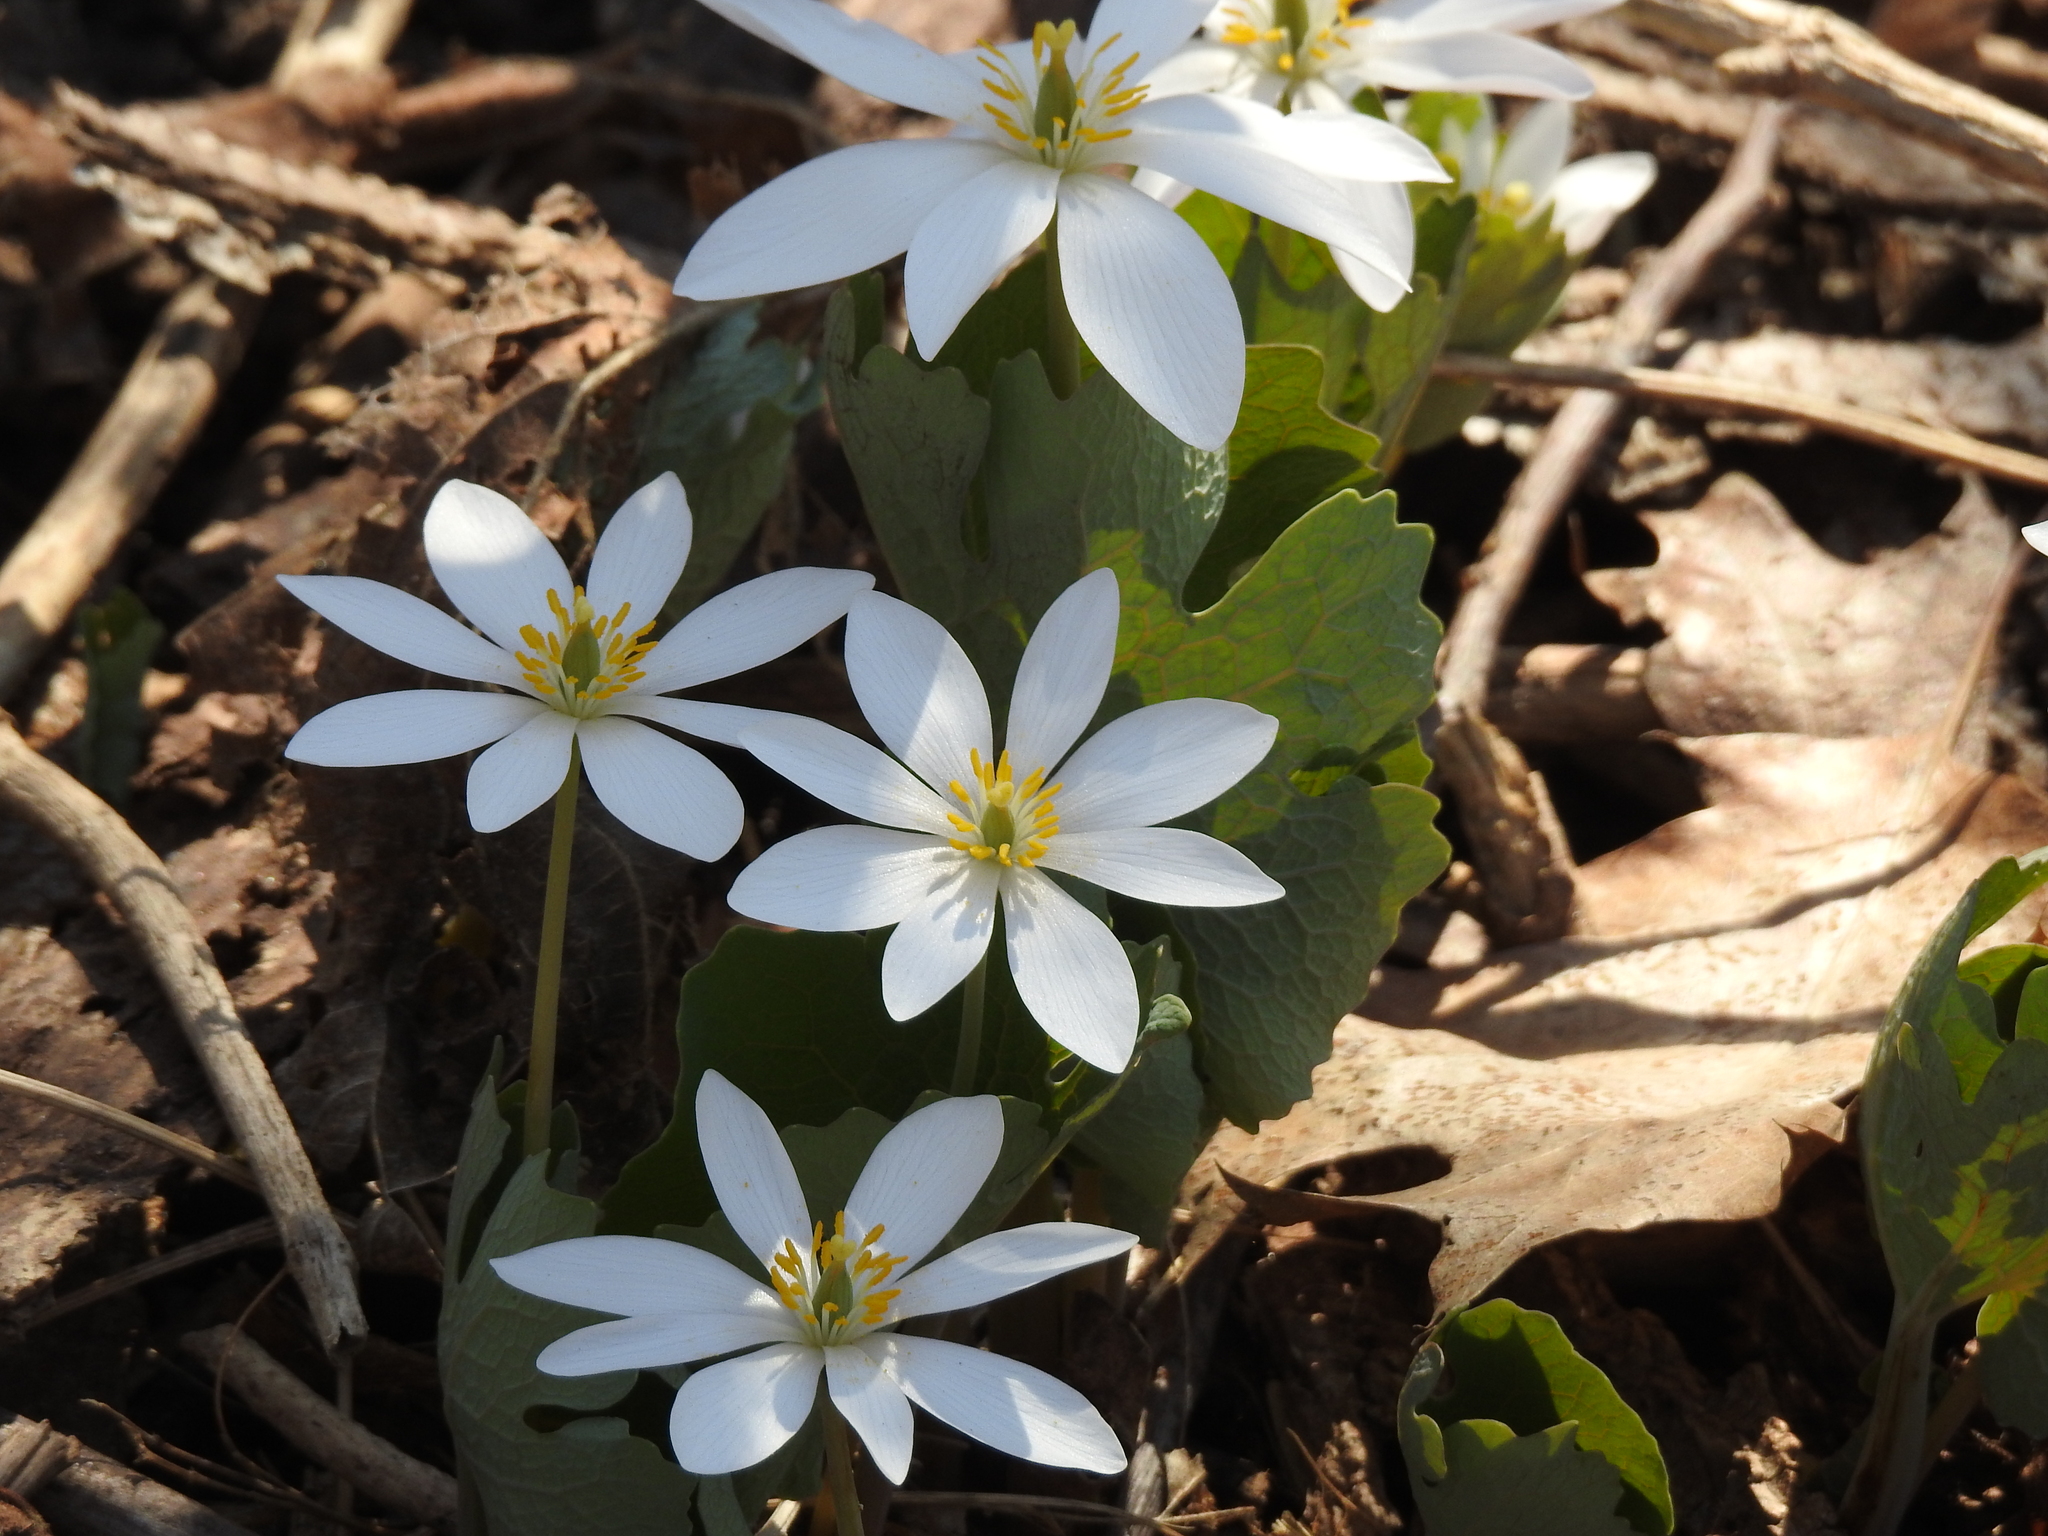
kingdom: Plantae
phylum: Tracheophyta
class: Magnoliopsida
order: Ranunculales
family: Papaveraceae
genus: Sanguinaria
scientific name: Sanguinaria canadensis
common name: Bloodroot
